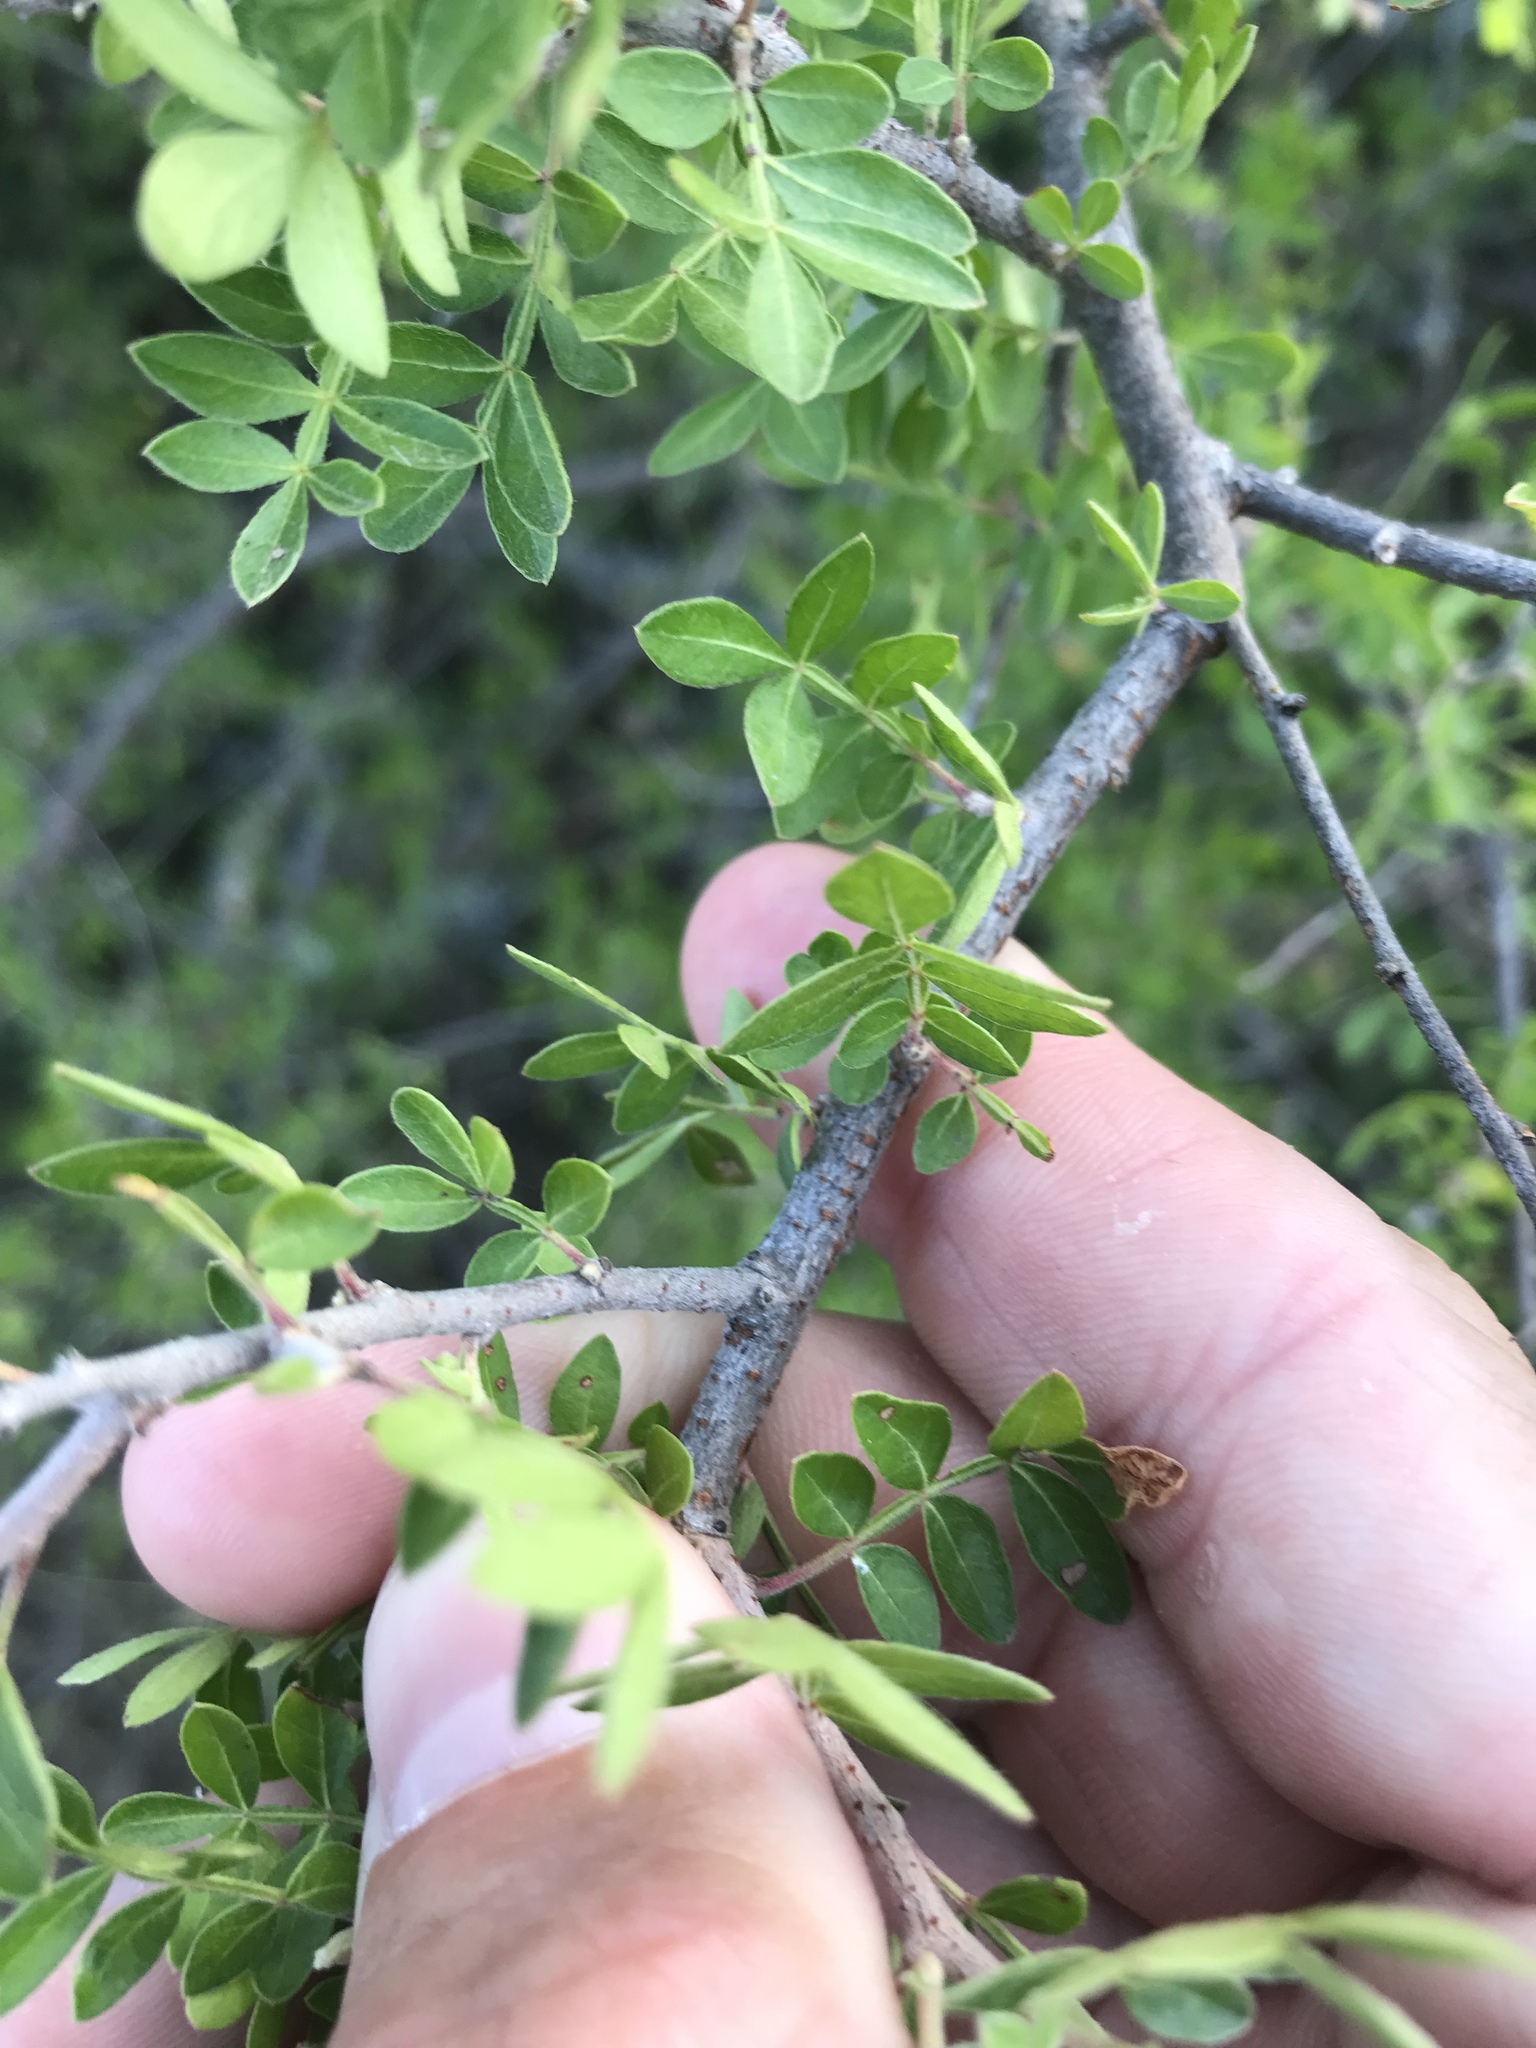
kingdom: Plantae
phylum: Tracheophyta
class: Magnoliopsida
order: Sapindales
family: Anacardiaceae
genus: Rhus
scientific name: Rhus microphylla
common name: Desert sumac
